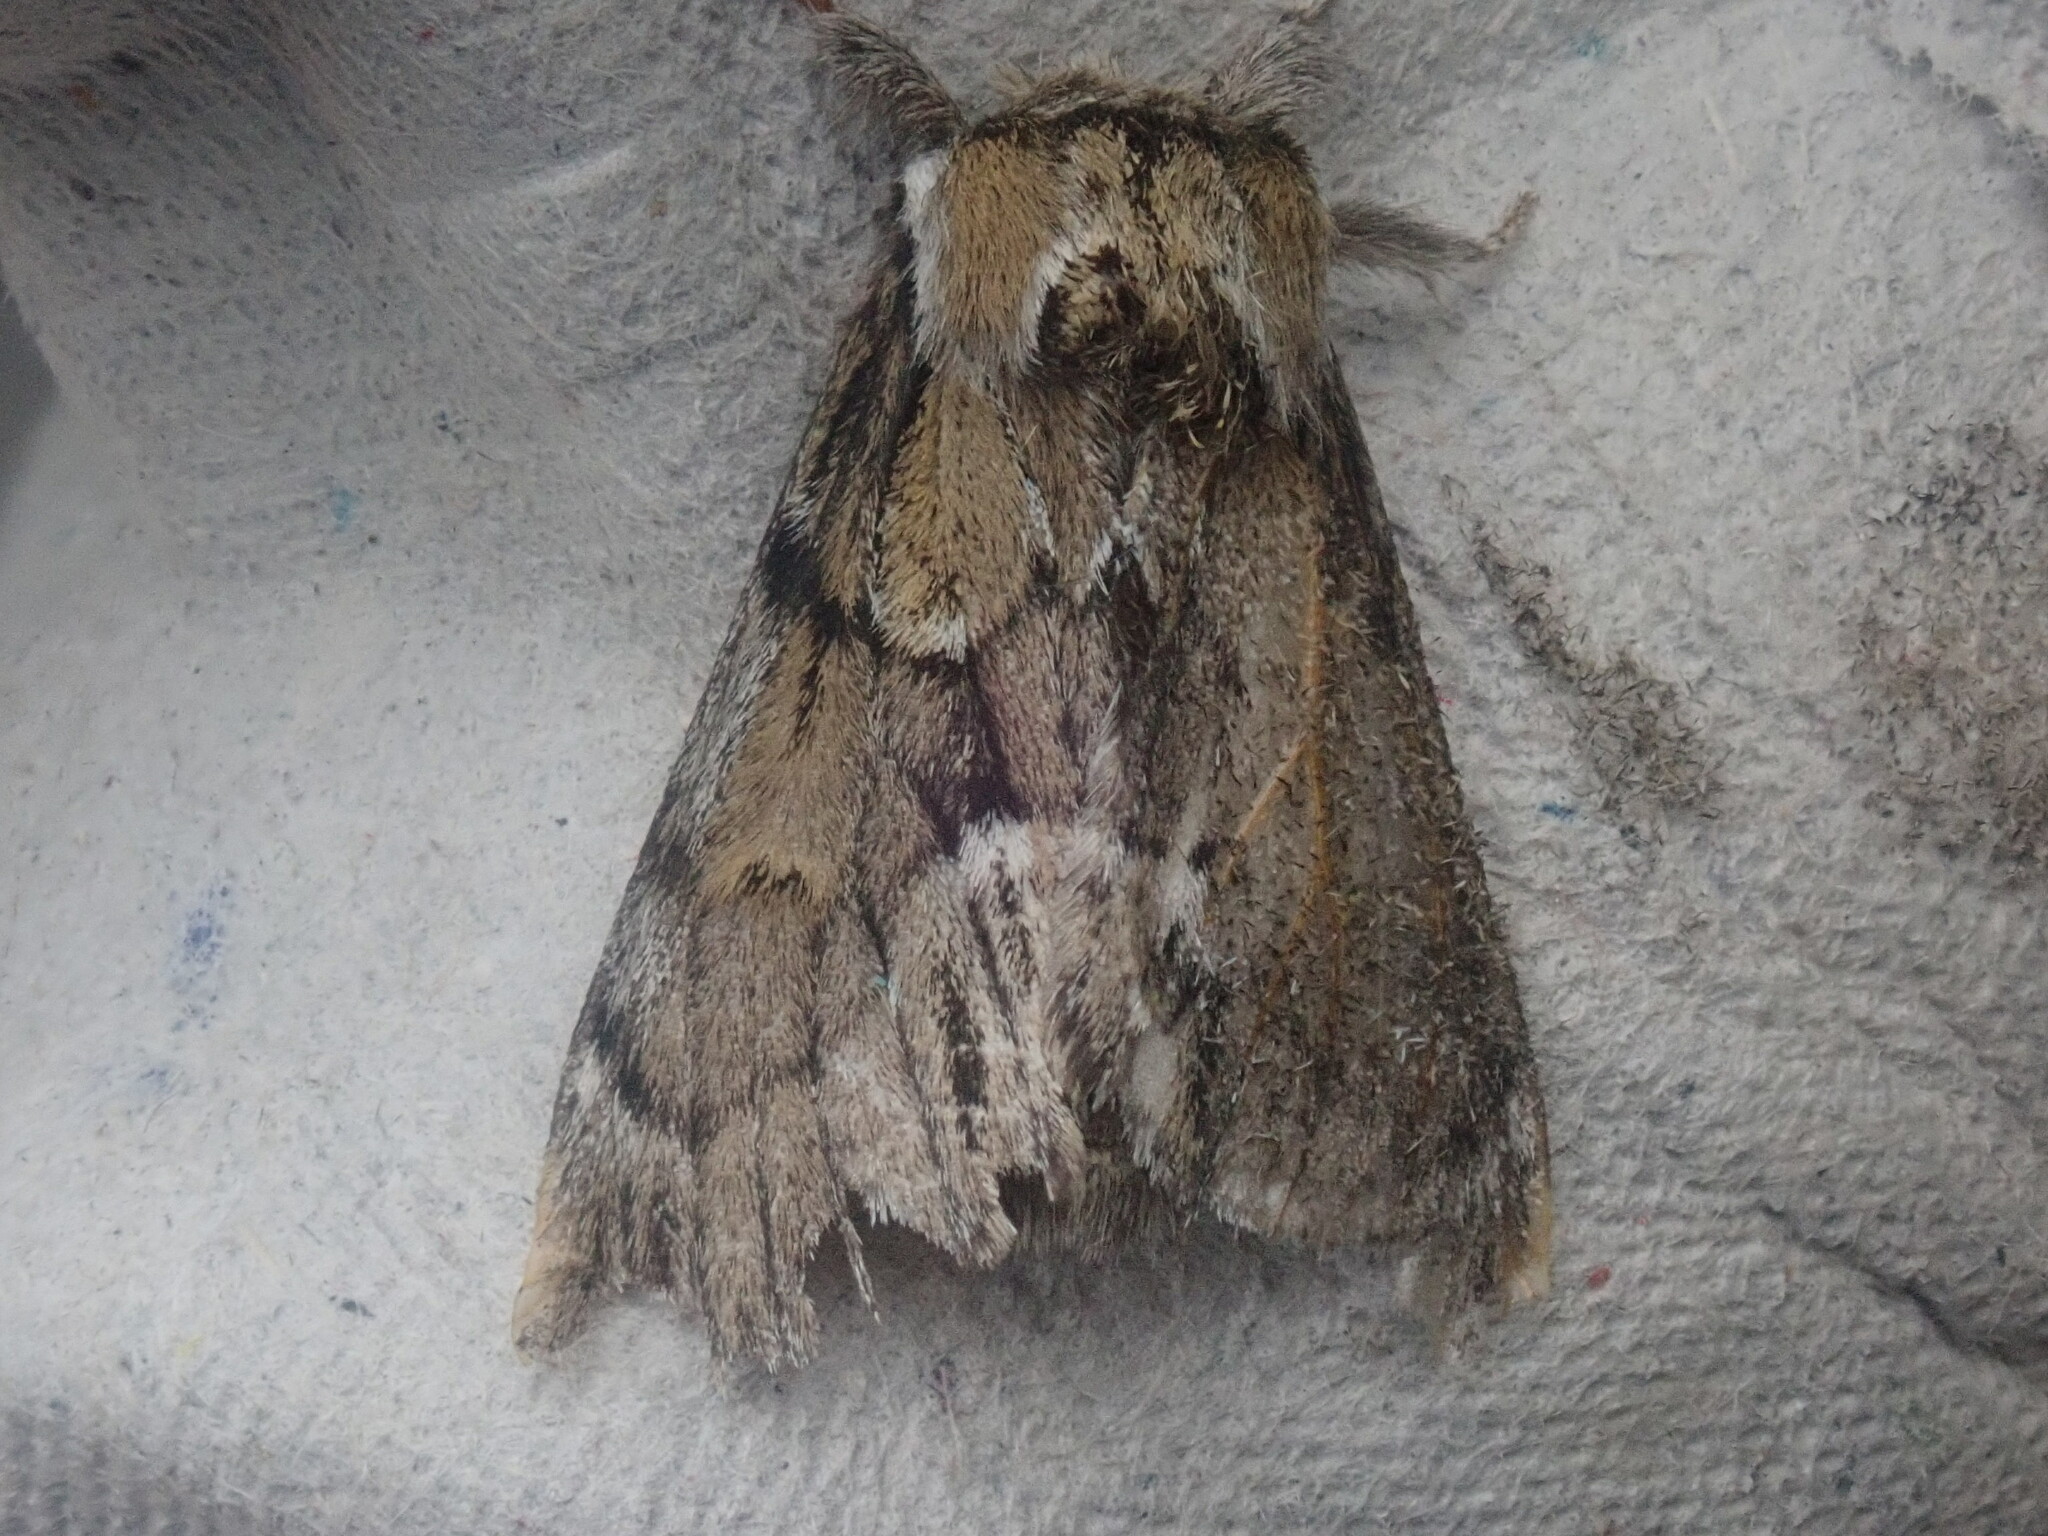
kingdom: Animalia
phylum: Arthropoda
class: Insecta
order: Lepidoptera
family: Notodontidae
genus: Paraeschra
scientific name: Paraeschra georgica
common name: Georgian prominent
